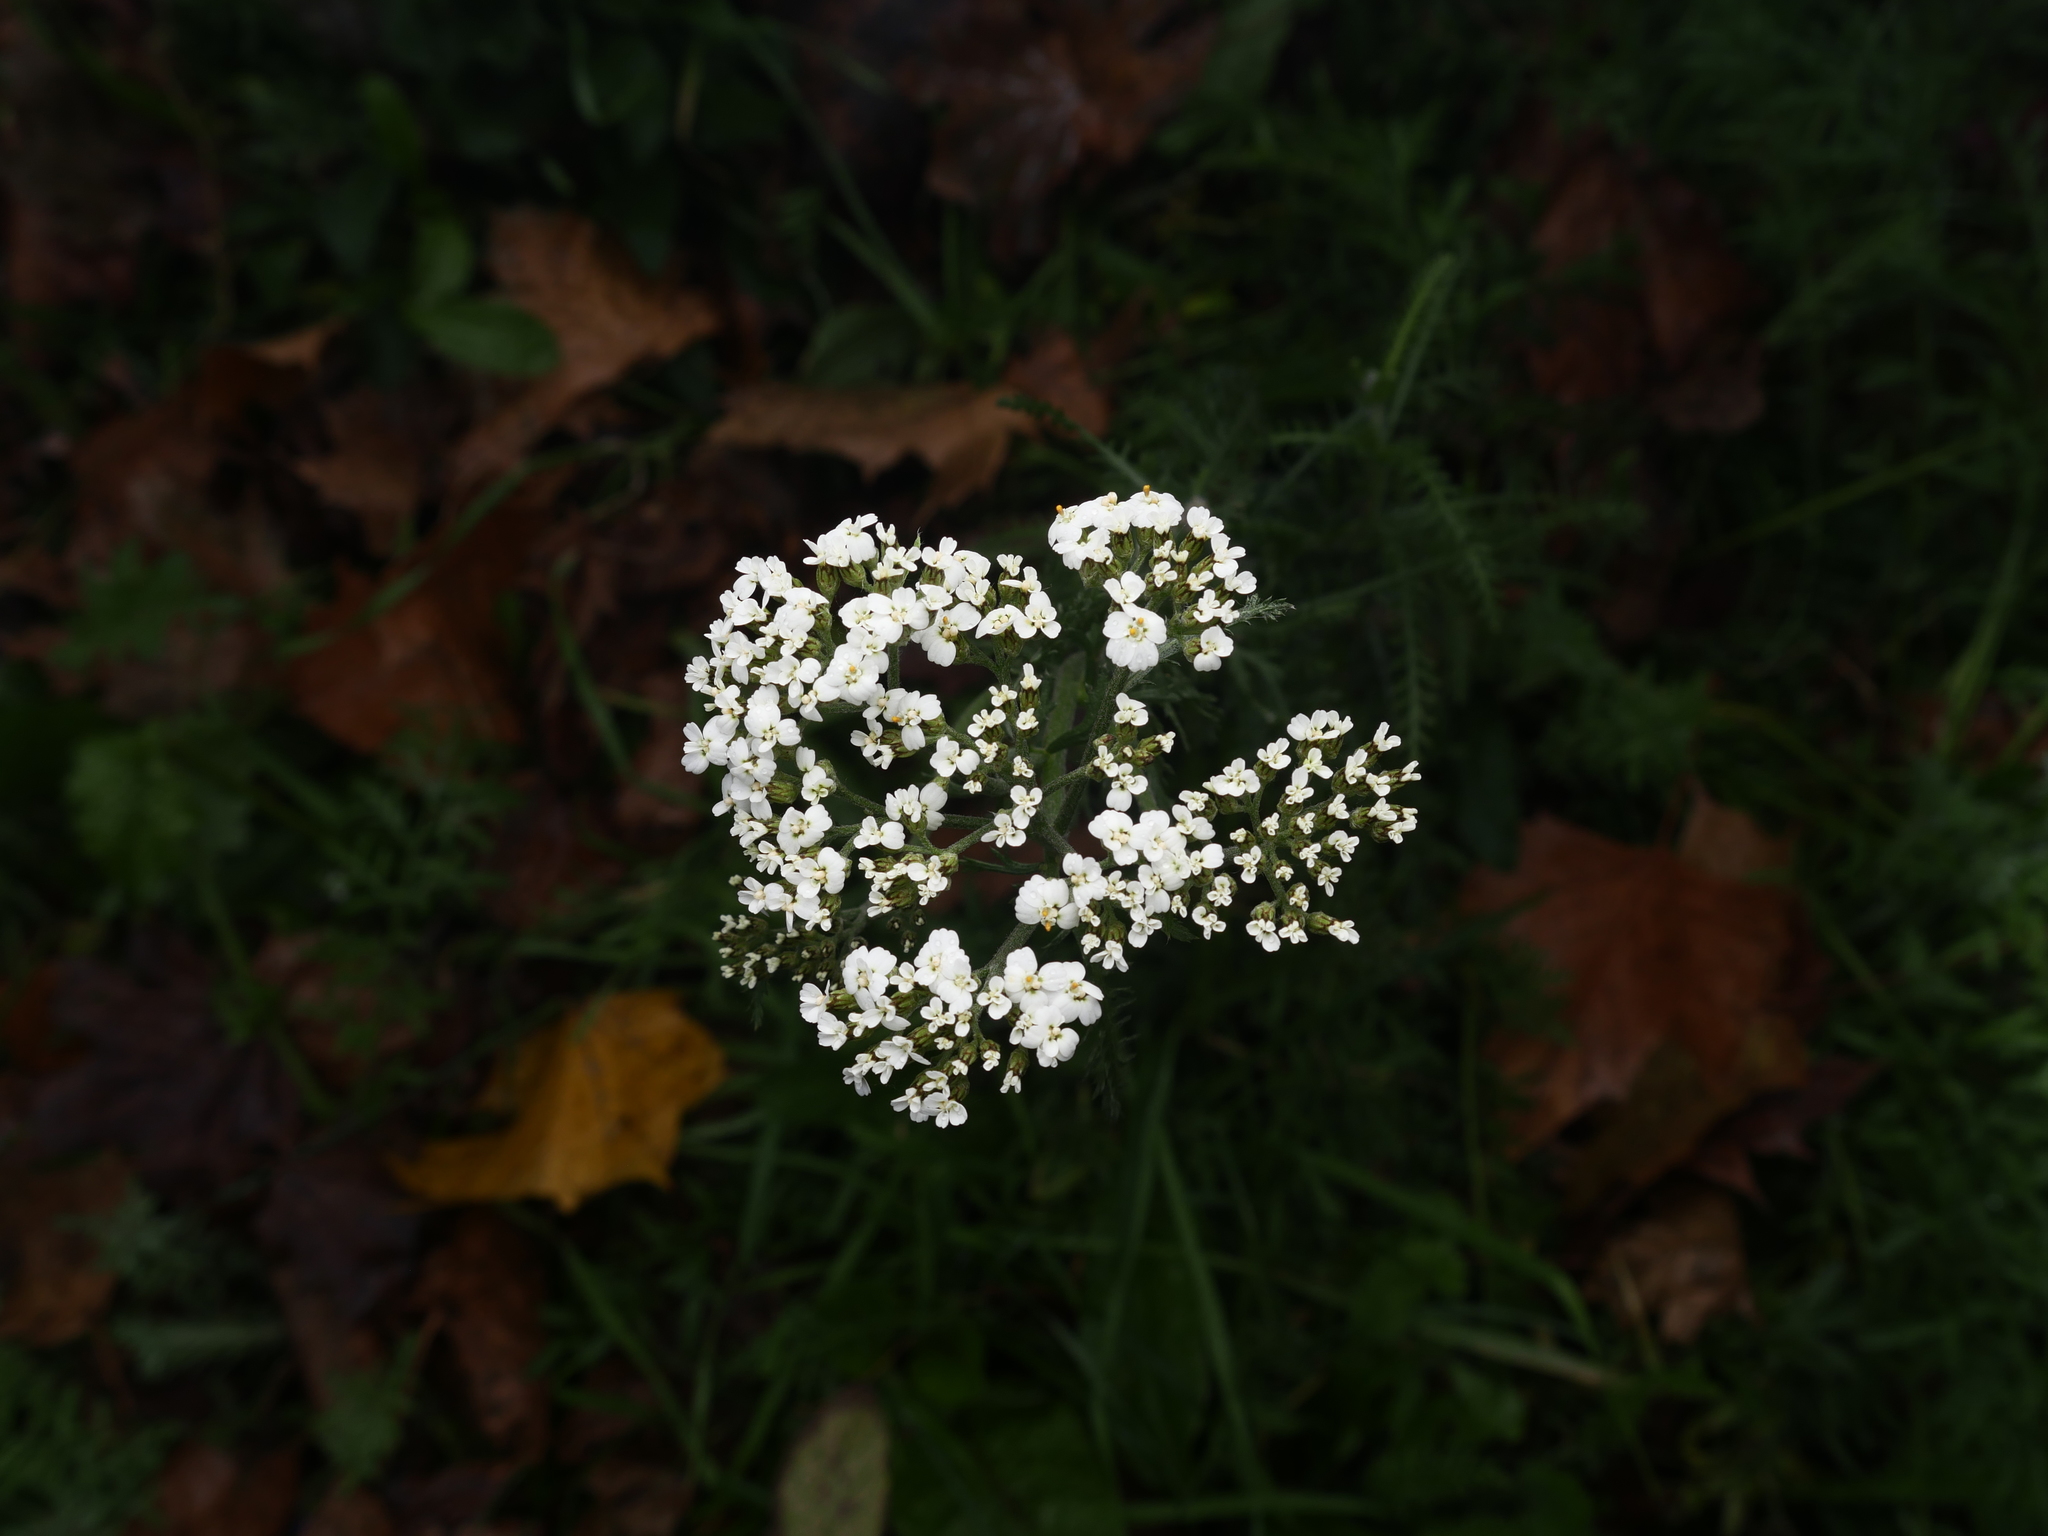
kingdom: Plantae
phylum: Tracheophyta
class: Magnoliopsida
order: Asterales
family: Asteraceae
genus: Achillea
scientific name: Achillea millefolium
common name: Yarrow
